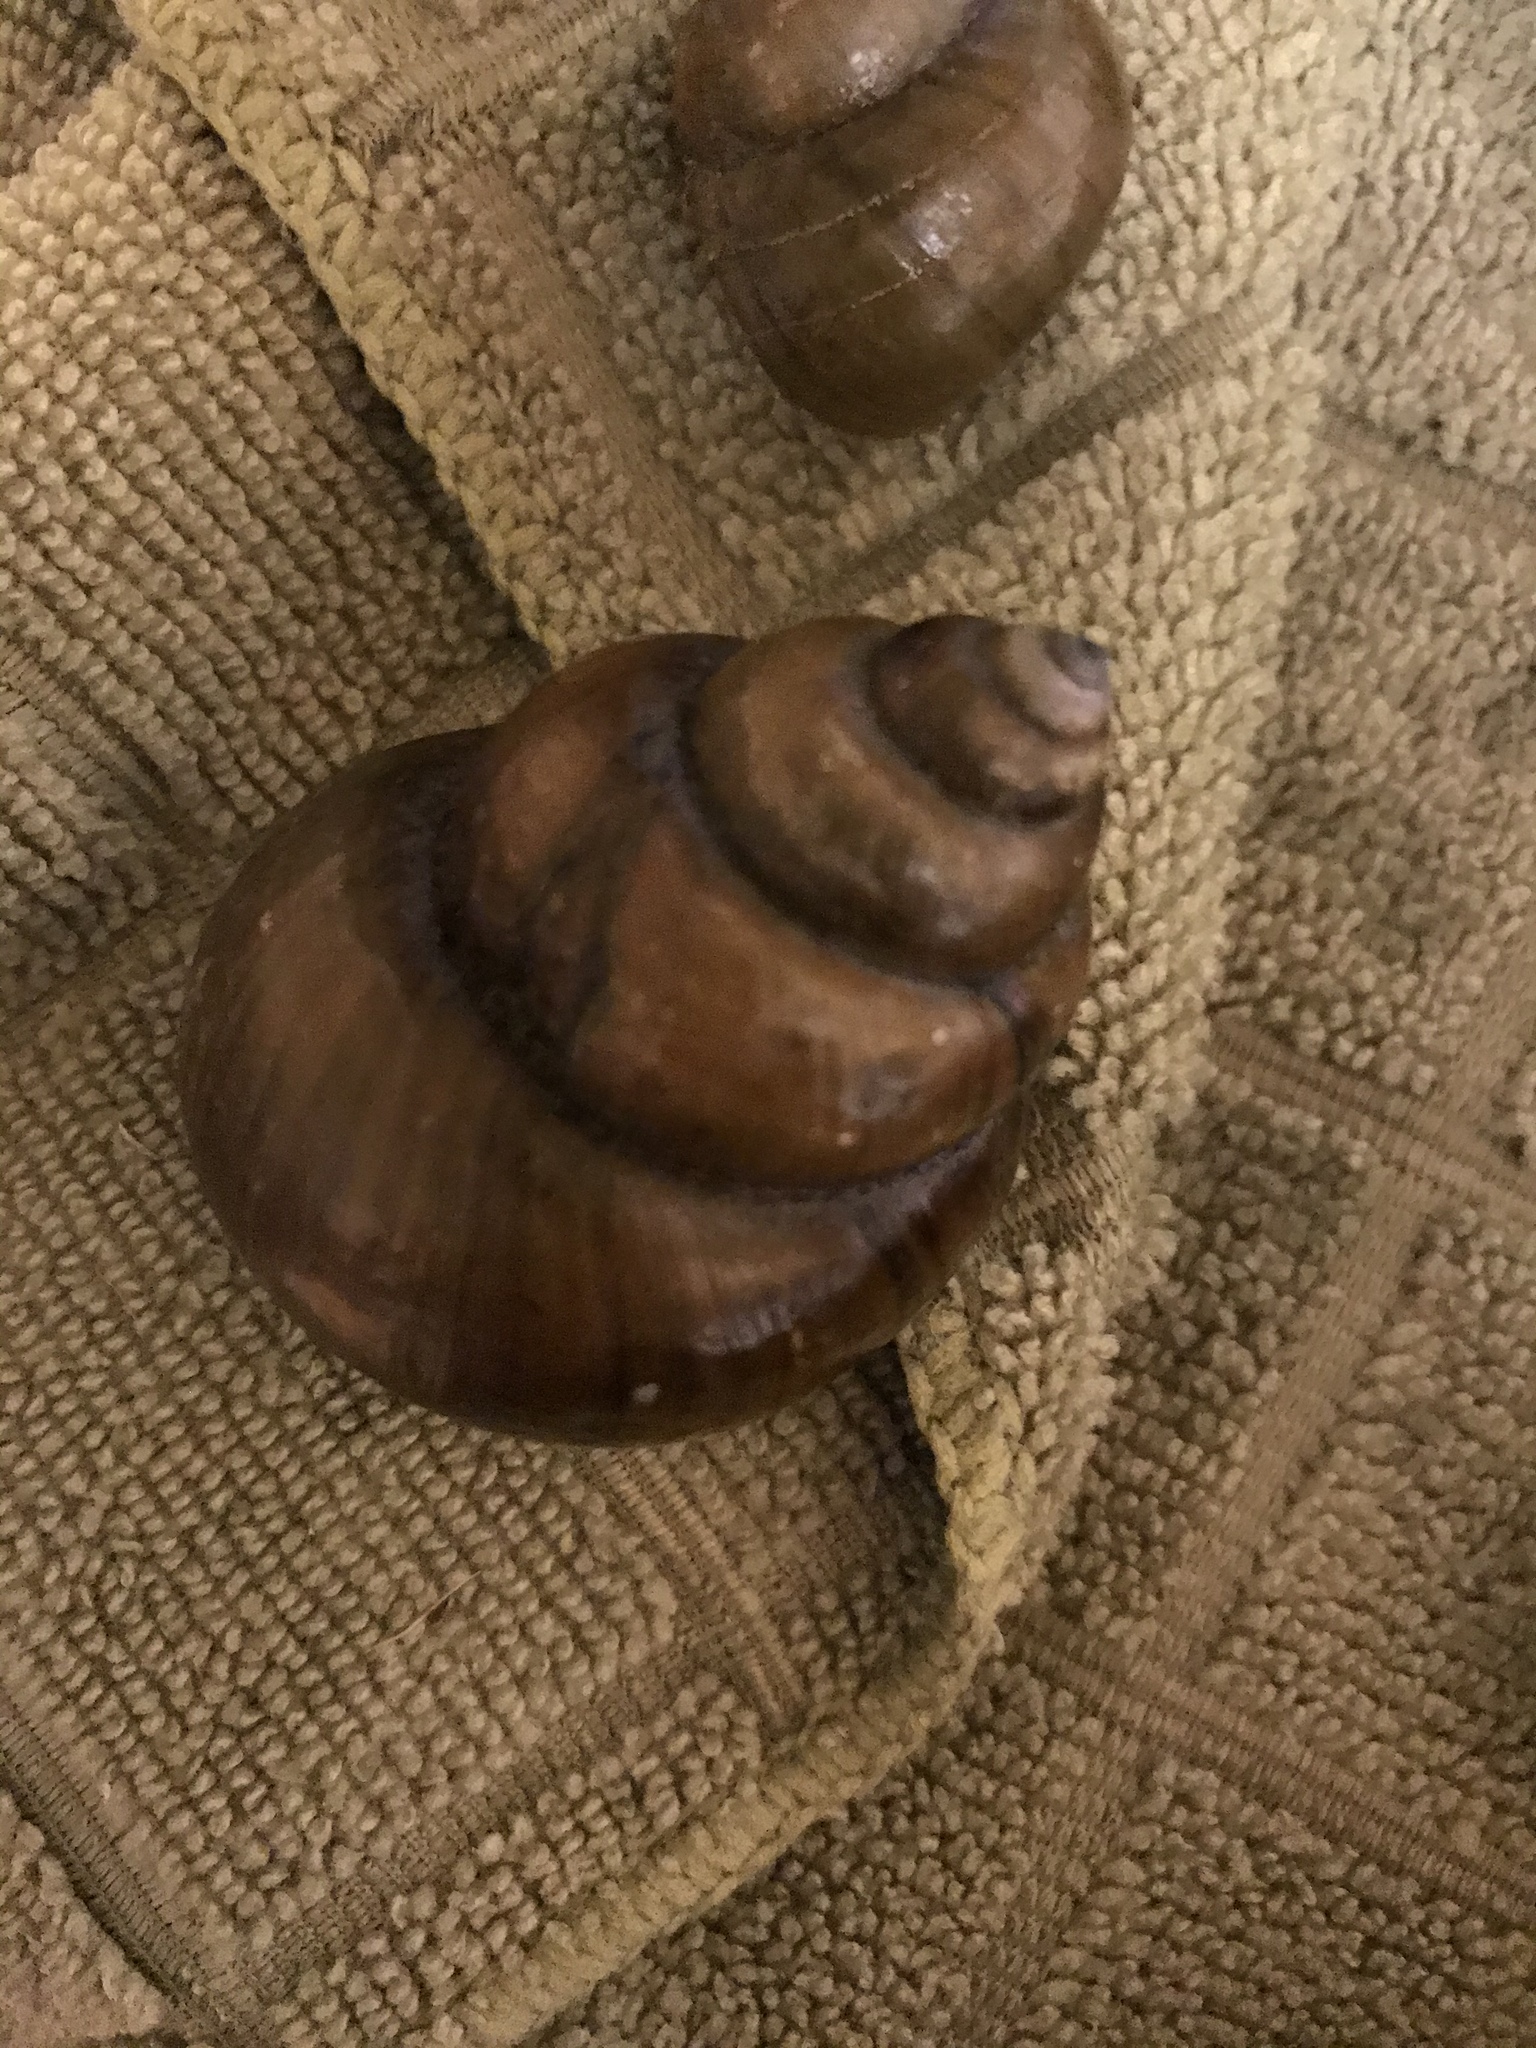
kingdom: Animalia
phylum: Mollusca
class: Gastropoda
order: Architaenioglossa
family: Viviparidae
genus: Cipangopaludina
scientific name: Cipangopaludina chinensis
